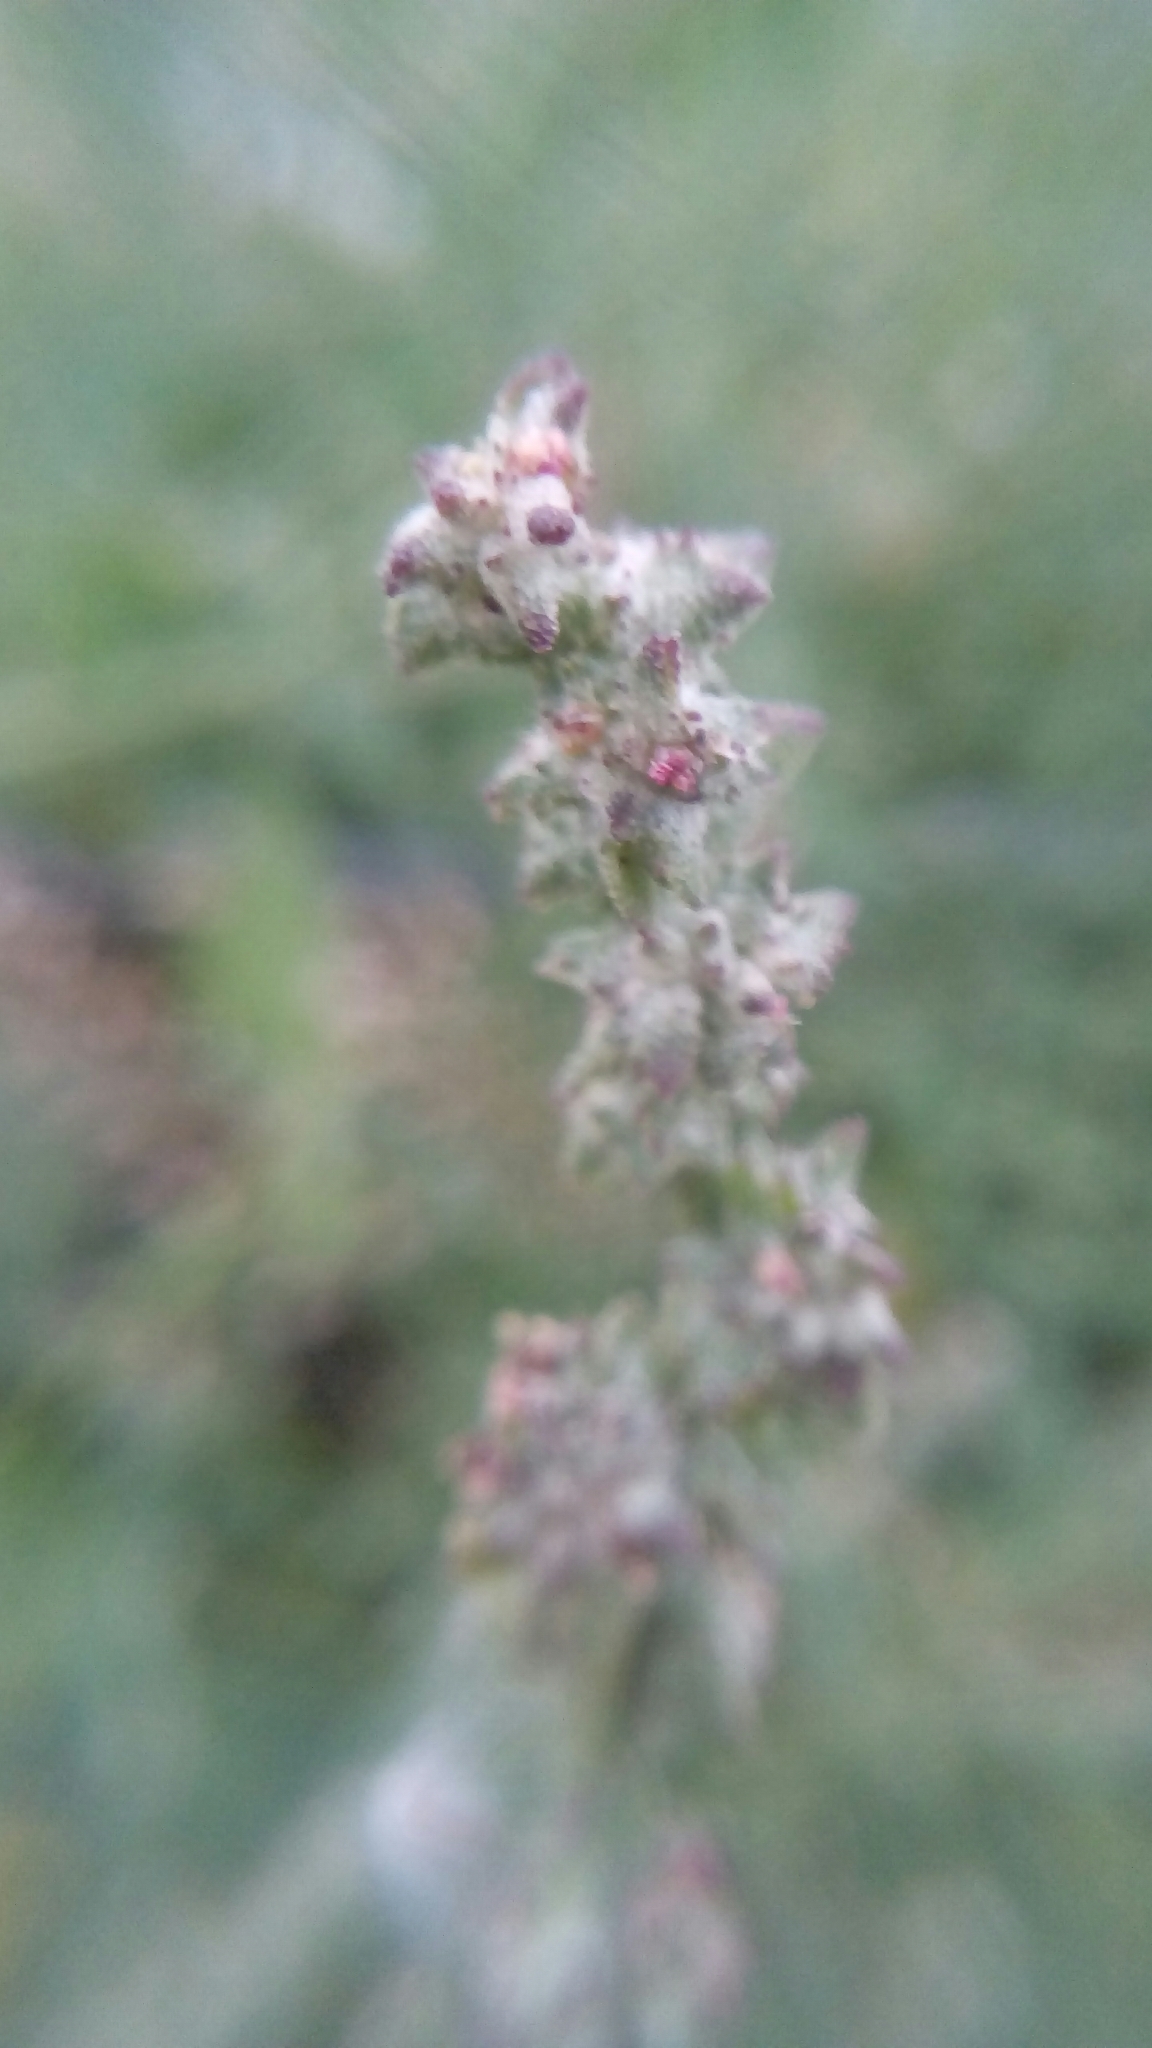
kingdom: Plantae
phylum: Tracheophyta
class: Magnoliopsida
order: Caryophyllales
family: Amaranthaceae
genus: Atriplex
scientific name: Atriplex patula
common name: Common orache
